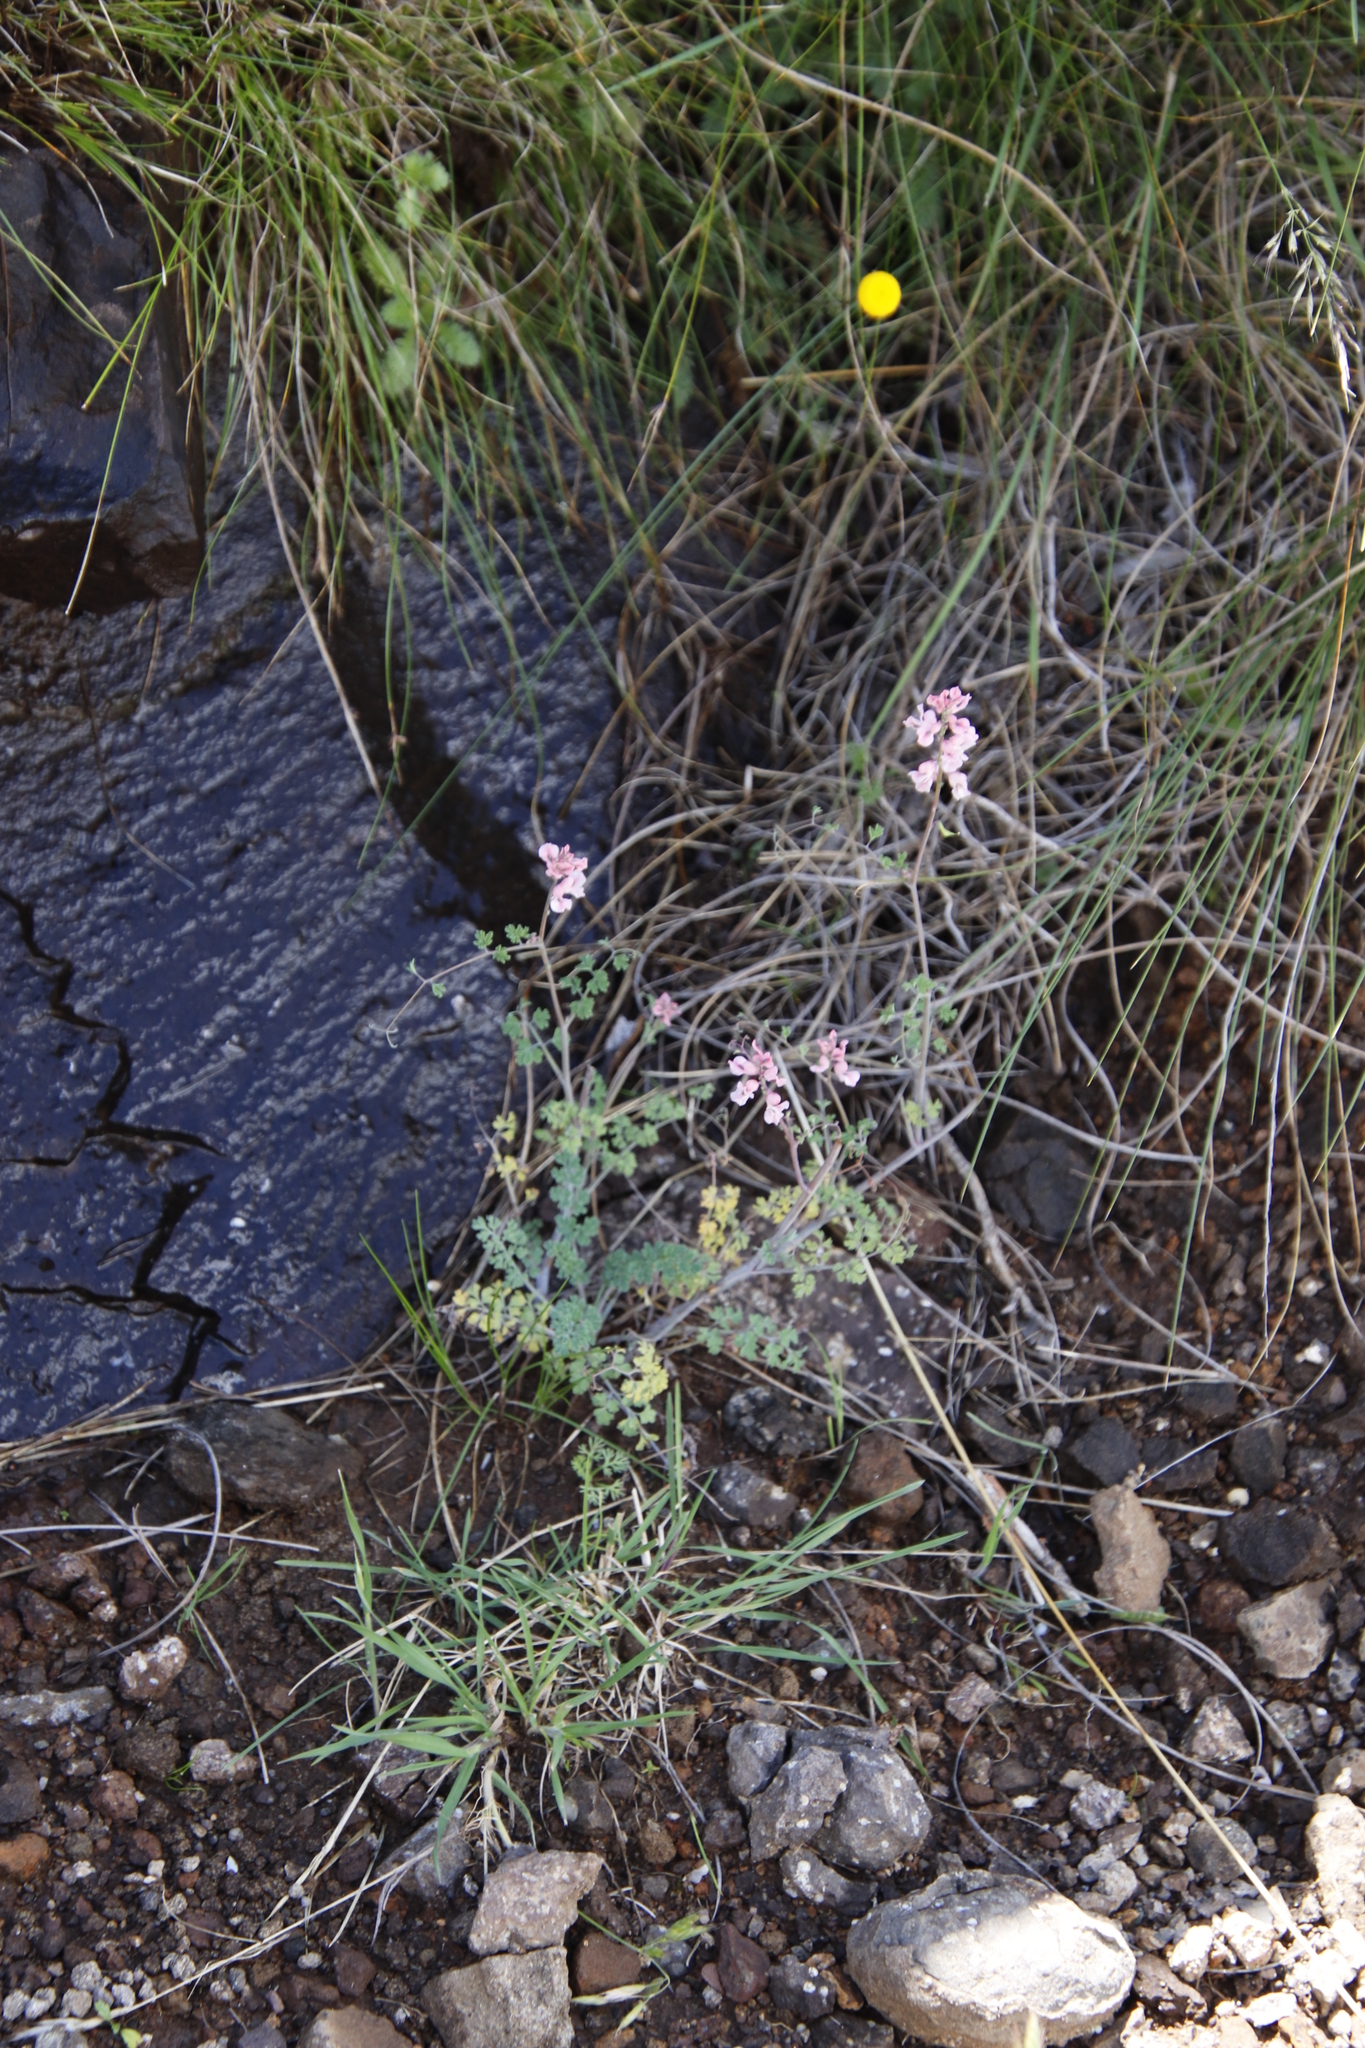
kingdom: Plantae
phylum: Tracheophyta
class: Magnoliopsida
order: Ranunculales
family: Papaveraceae
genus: Cysticapnos
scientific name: Cysticapnos pruinosa
